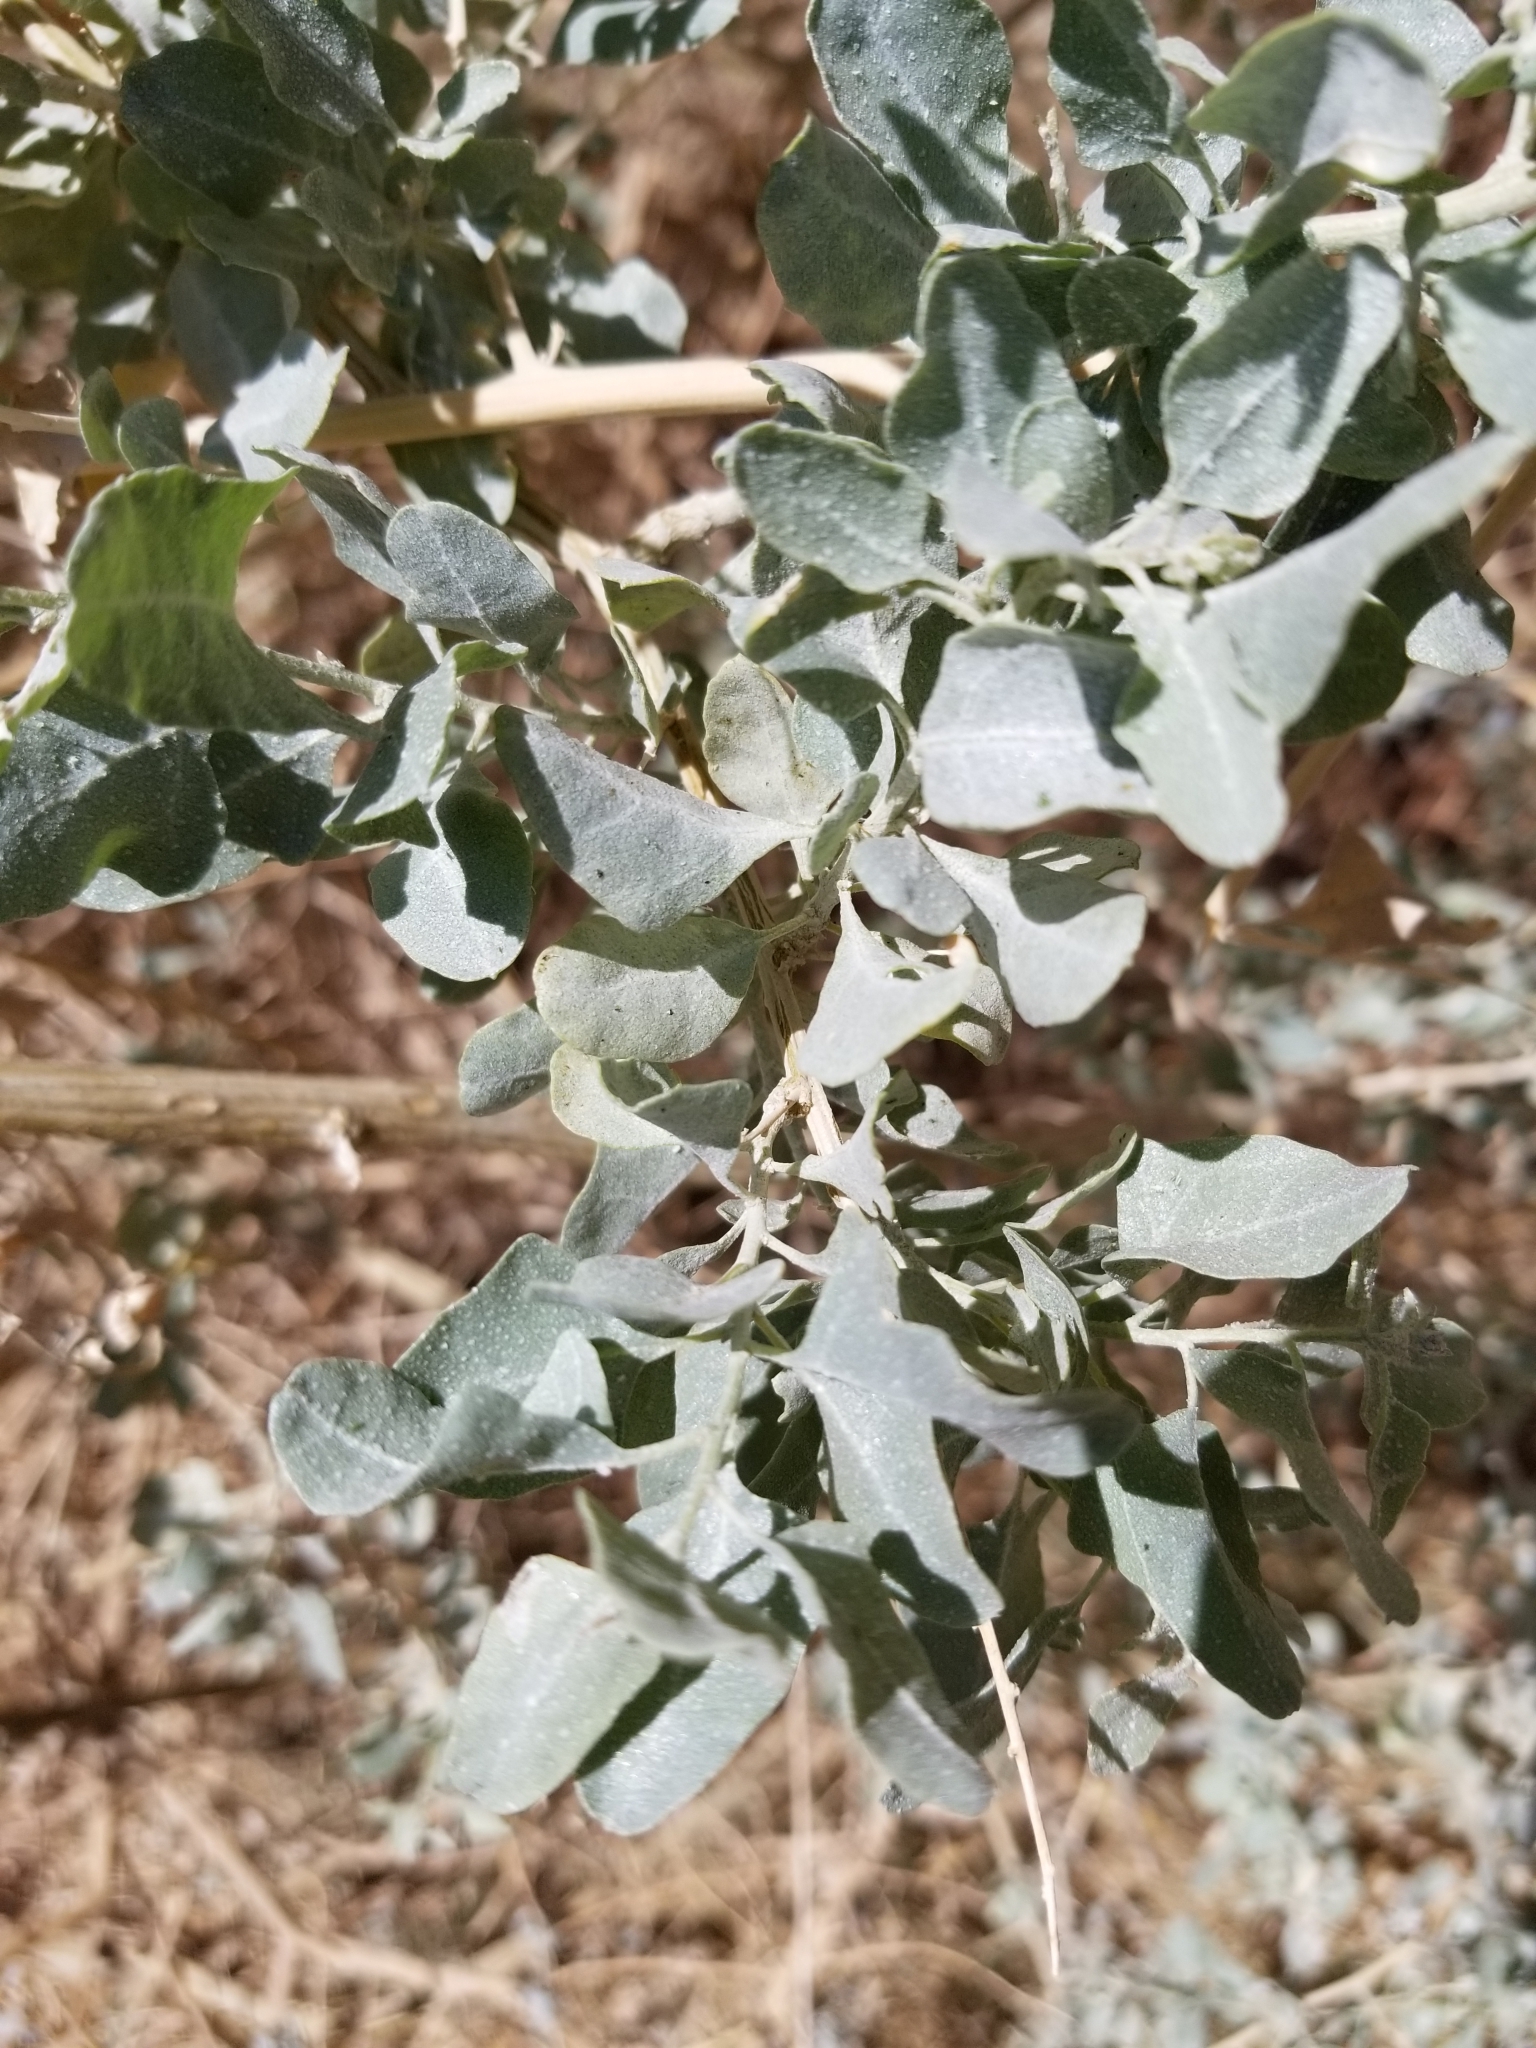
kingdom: Plantae
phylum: Tracheophyta
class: Magnoliopsida
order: Caryophyllales
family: Amaranthaceae
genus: Atriplex
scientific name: Atriplex lentiformis
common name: Big saltbush
